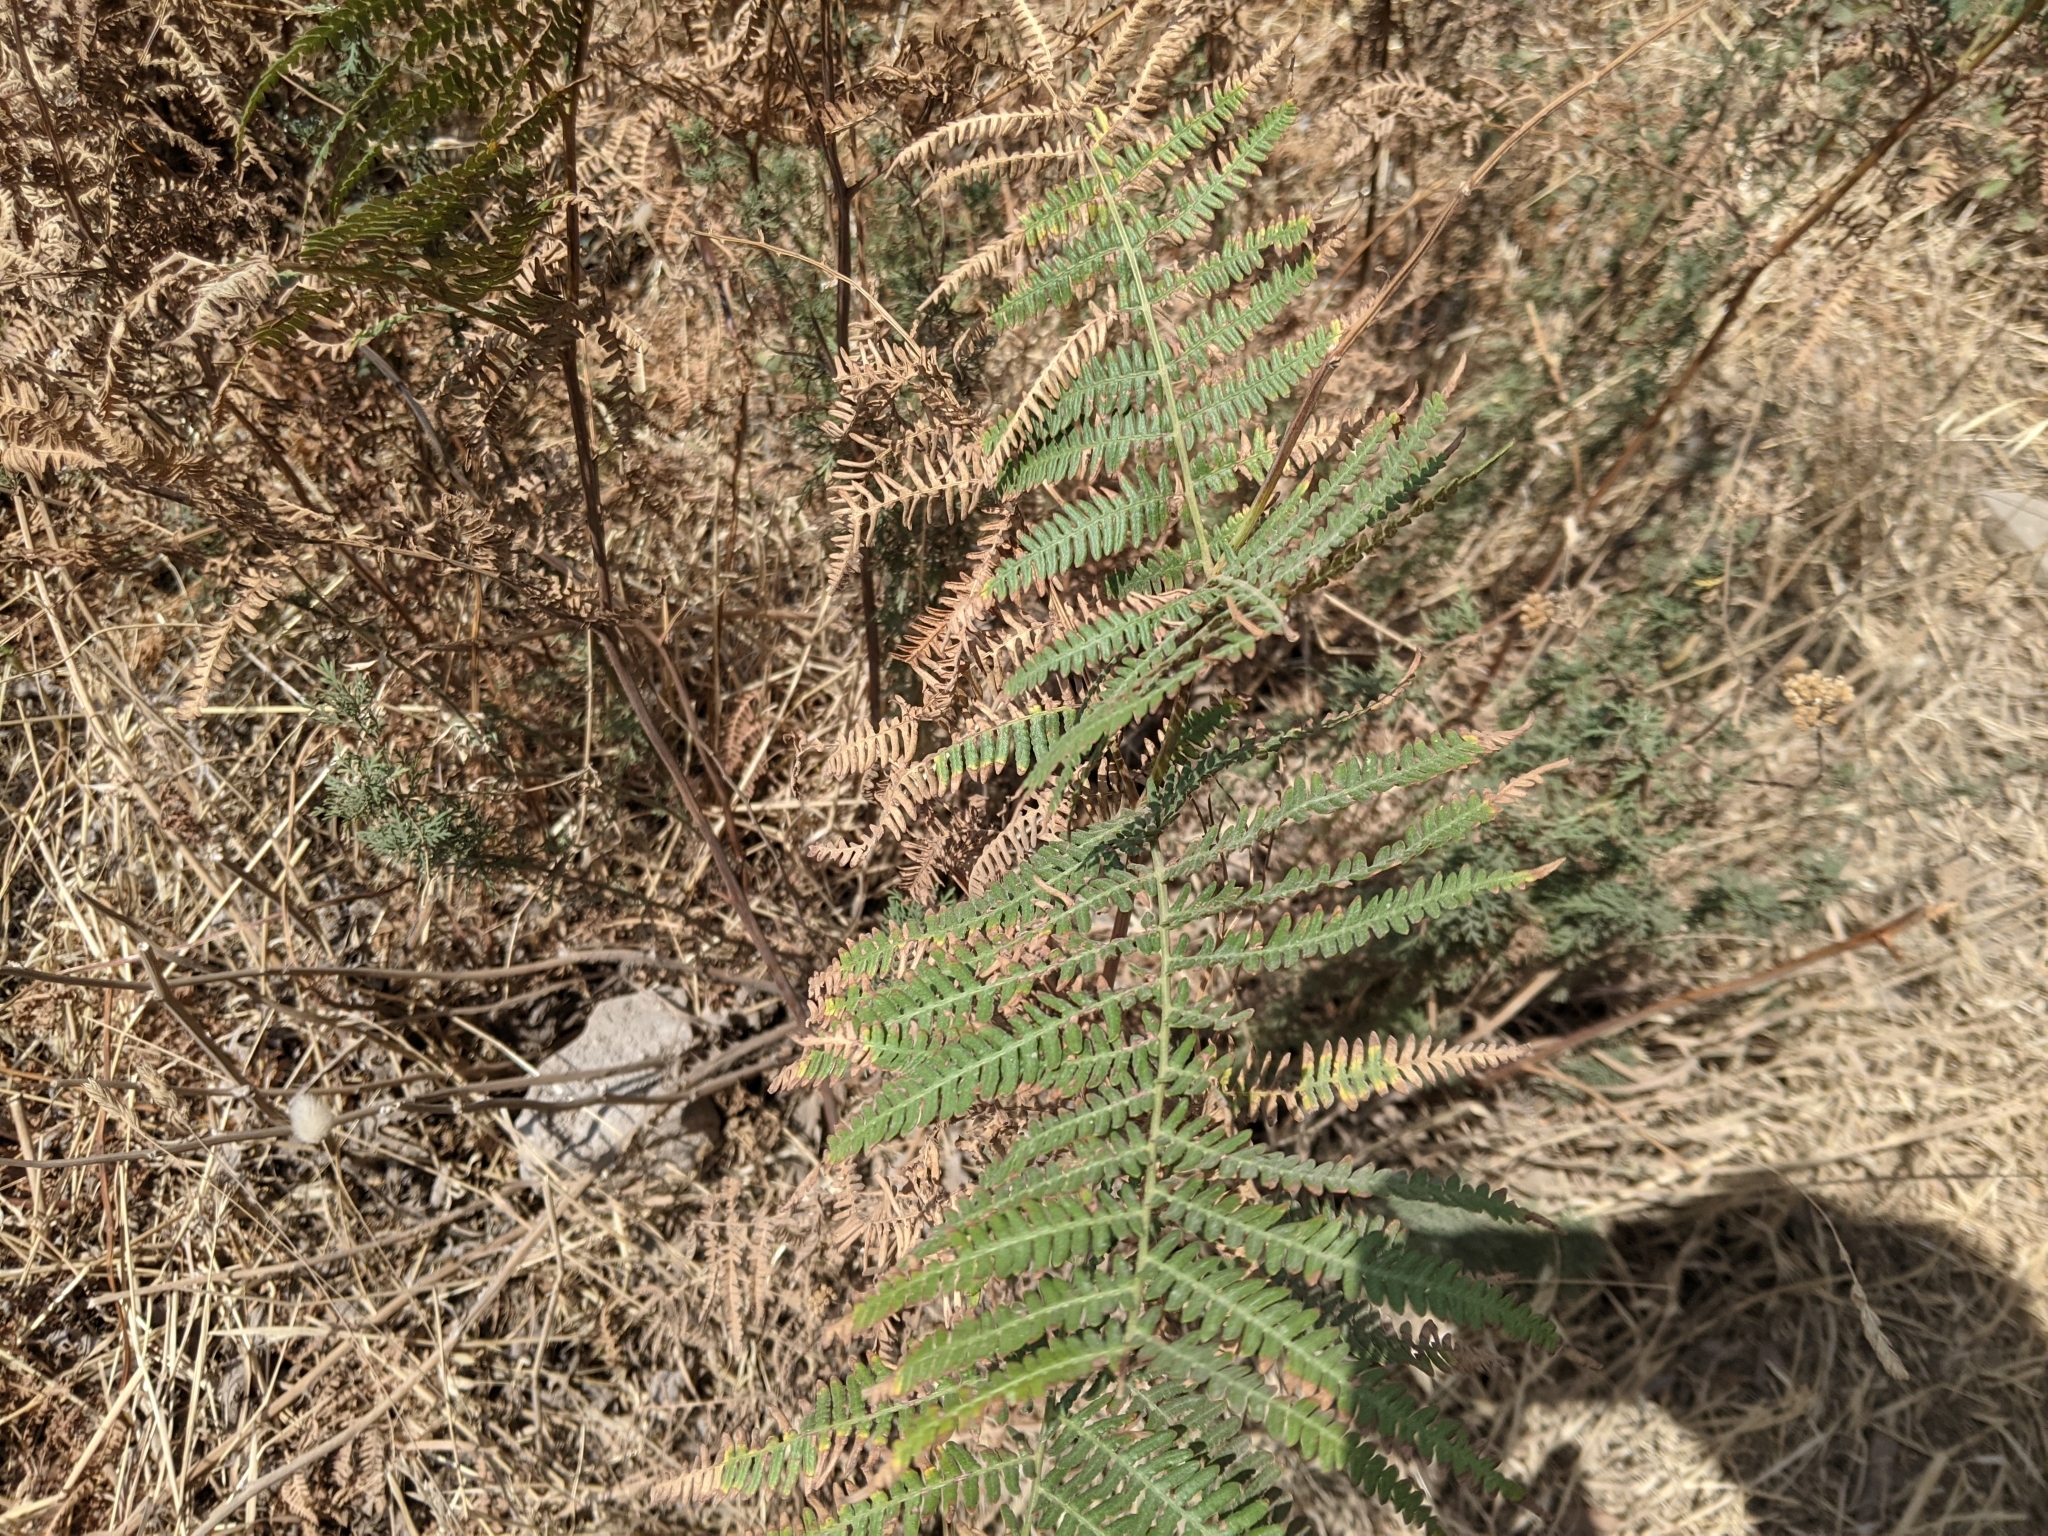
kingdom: Plantae
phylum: Tracheophyta
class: Polypodiopsida
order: Polypodiales
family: Dennstaedtiaceae
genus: Pteridium
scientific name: Pteridium aquilinum
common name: Bracken
